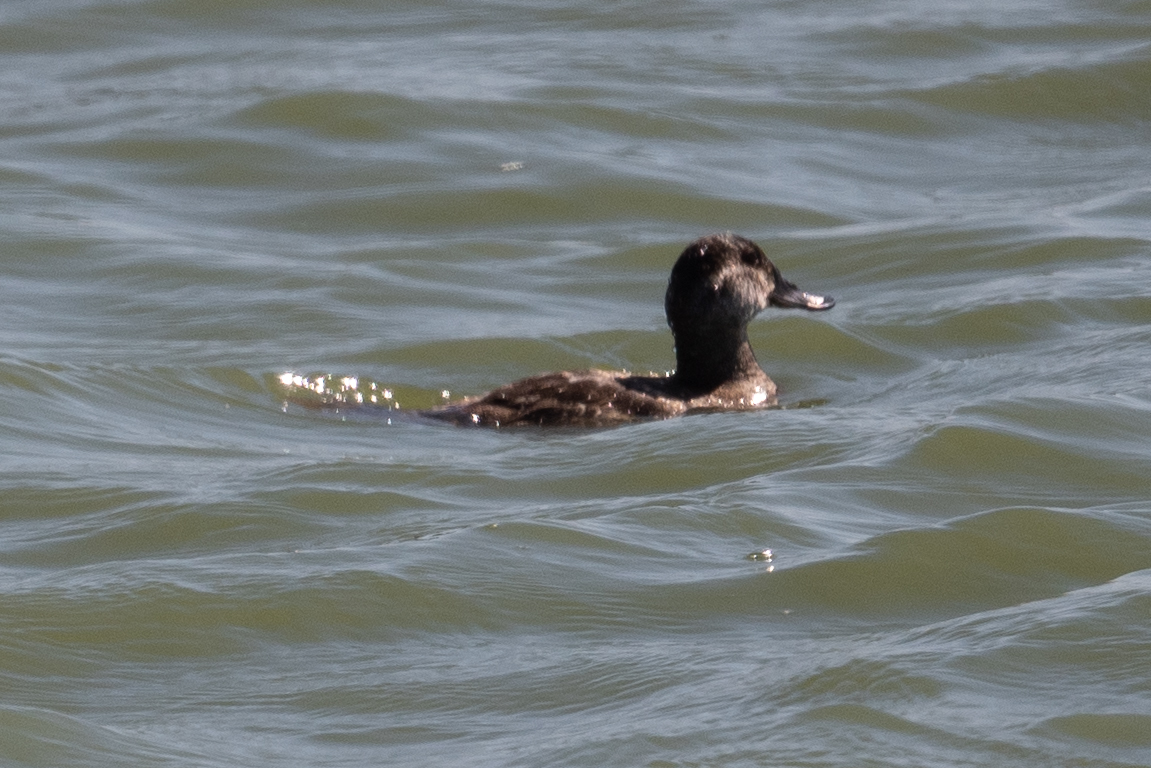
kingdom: Animalia
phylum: Chordata
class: Aves
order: Anseriformes
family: Anatidae
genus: Oxyura
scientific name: Oxyura jamaicensis
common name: Ruddy duck
